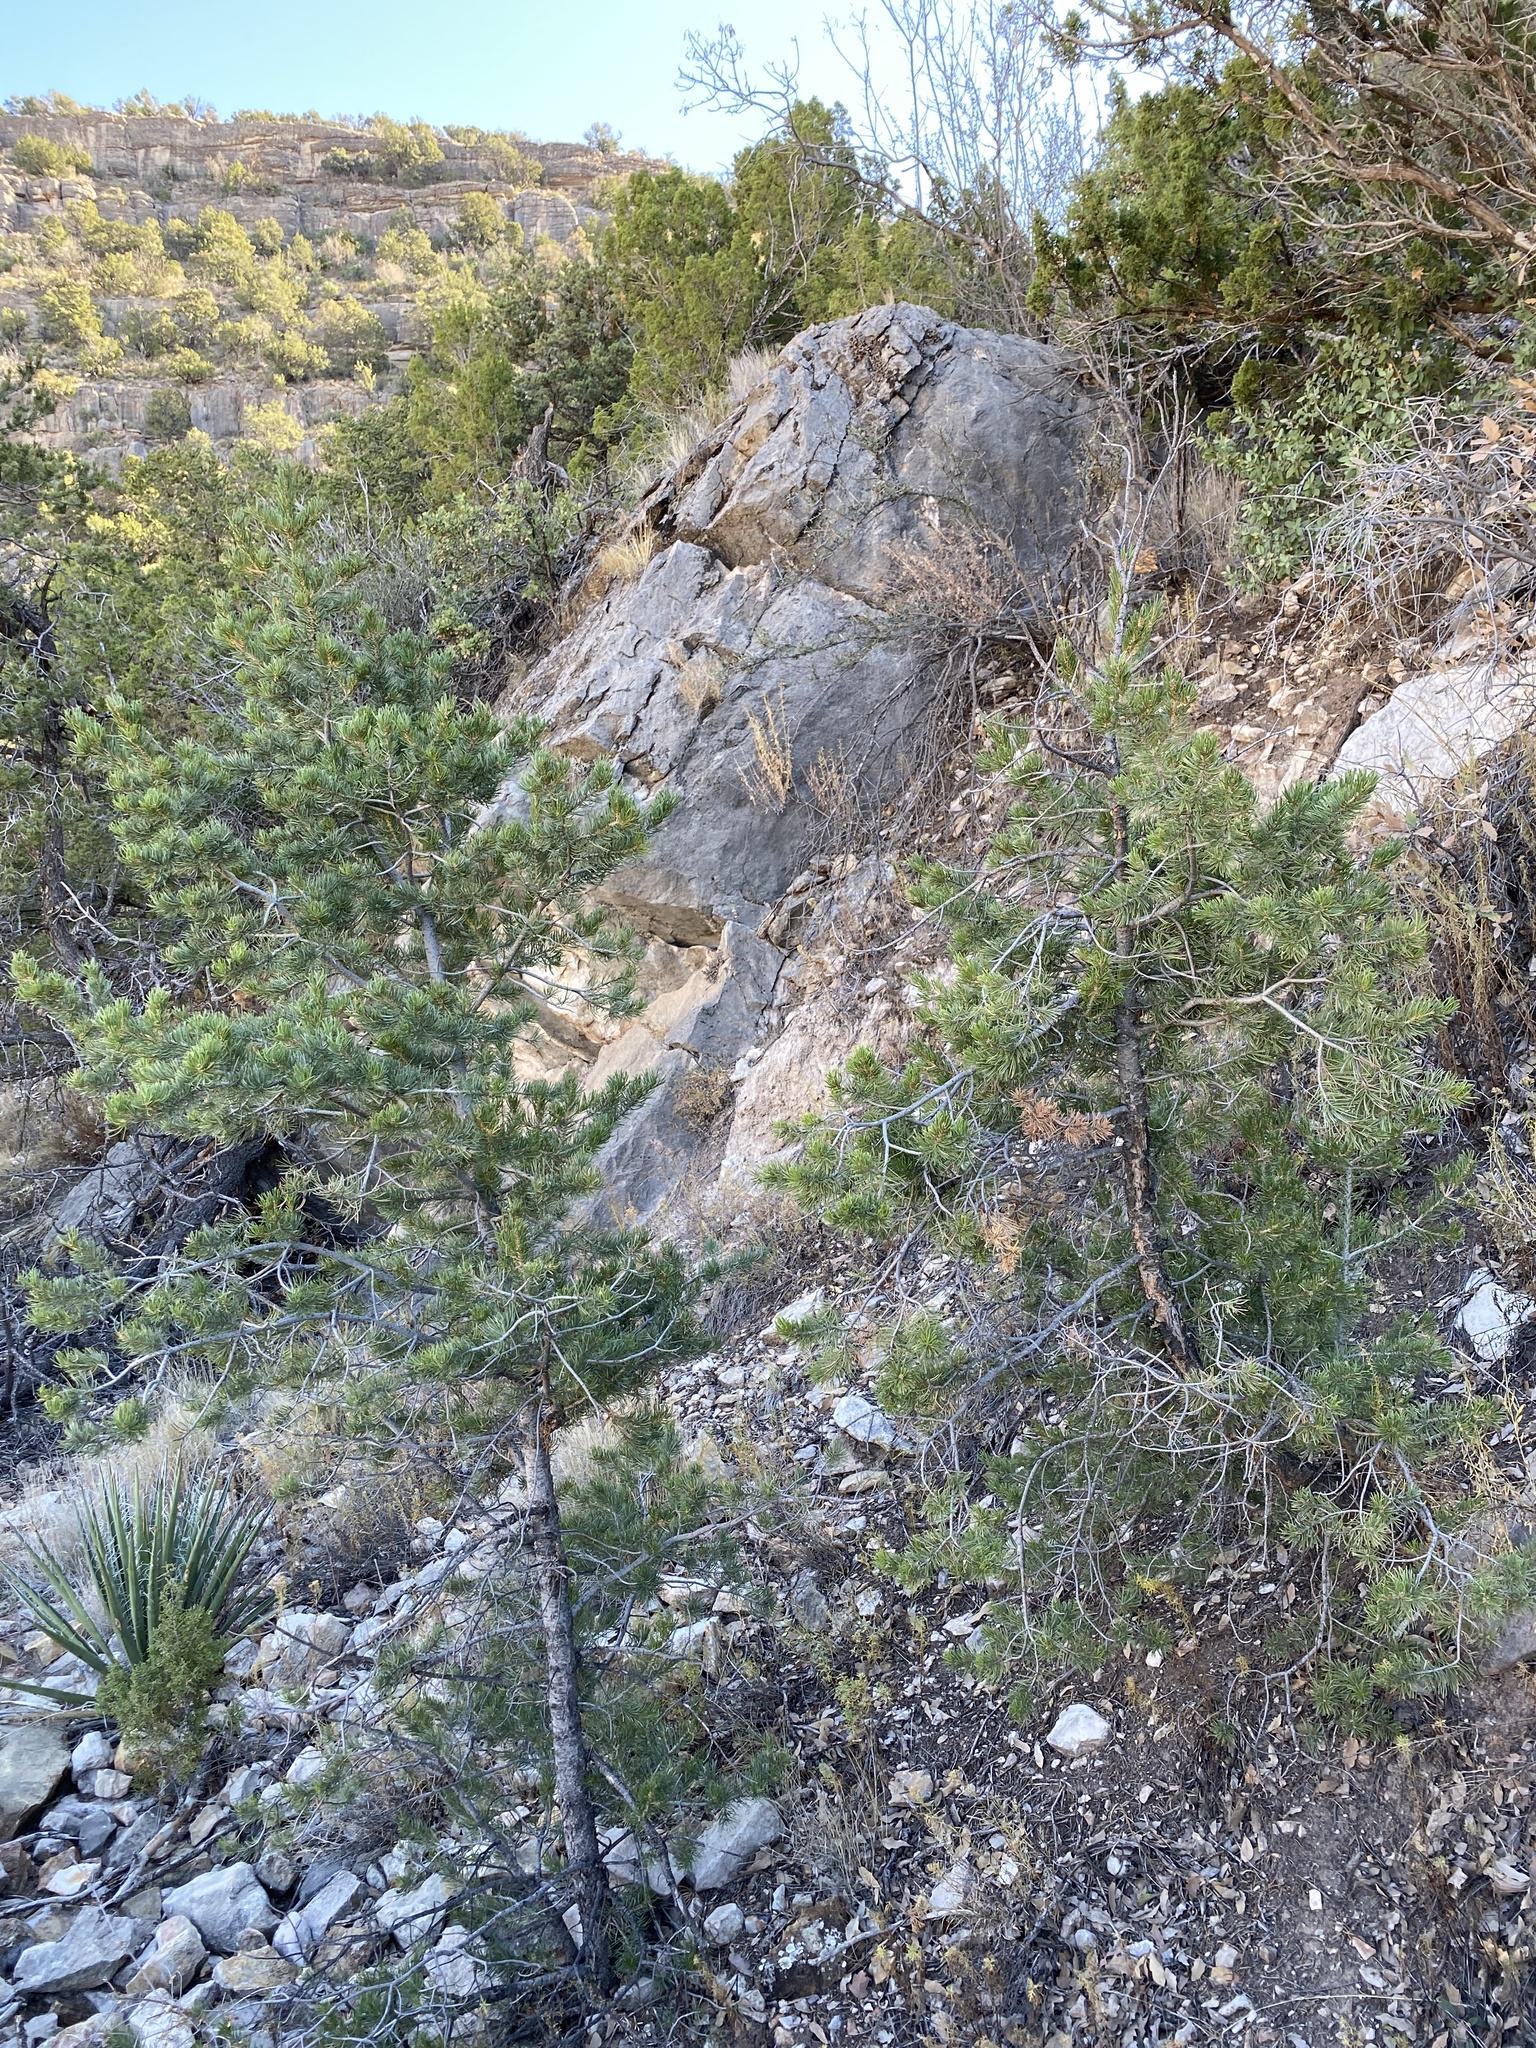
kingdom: Plantae
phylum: Tracheophyta
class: Pinopsida
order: Pinales
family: Pinaceae
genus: Pinus
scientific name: Pinus edulis
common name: Colorado pinyon
